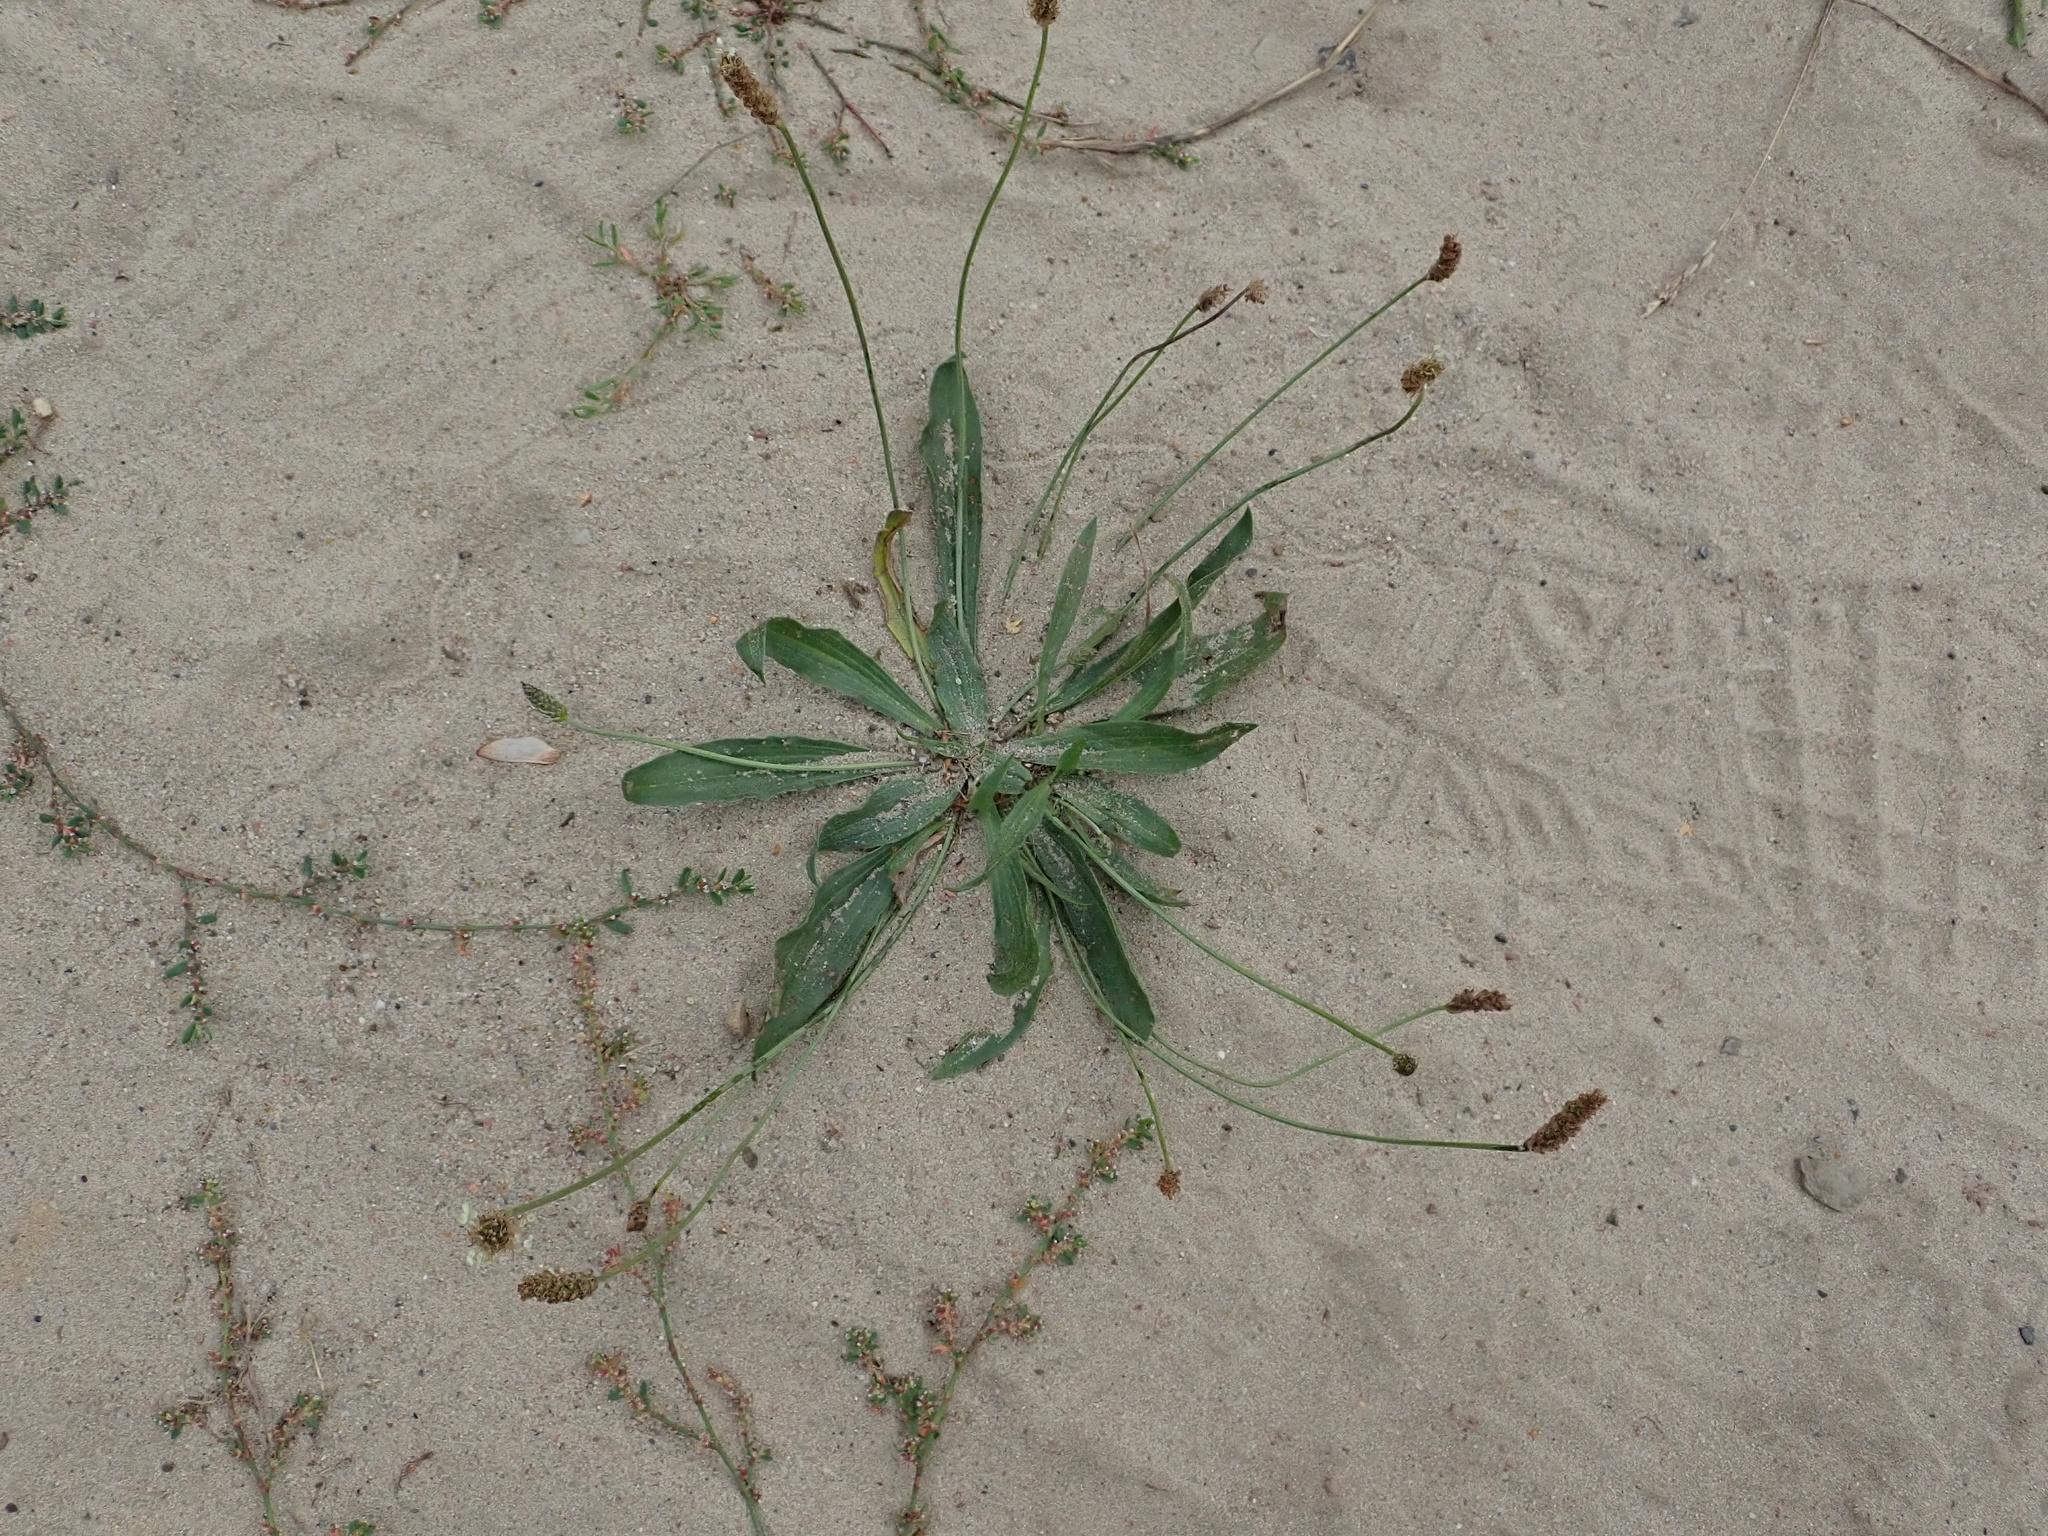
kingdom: Plantae
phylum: Tracheophyta
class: Magnoliopsida
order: Lamiales
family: Plantaginaceae
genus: Plantago
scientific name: Plantago lanceolata
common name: Ribwort plantain
